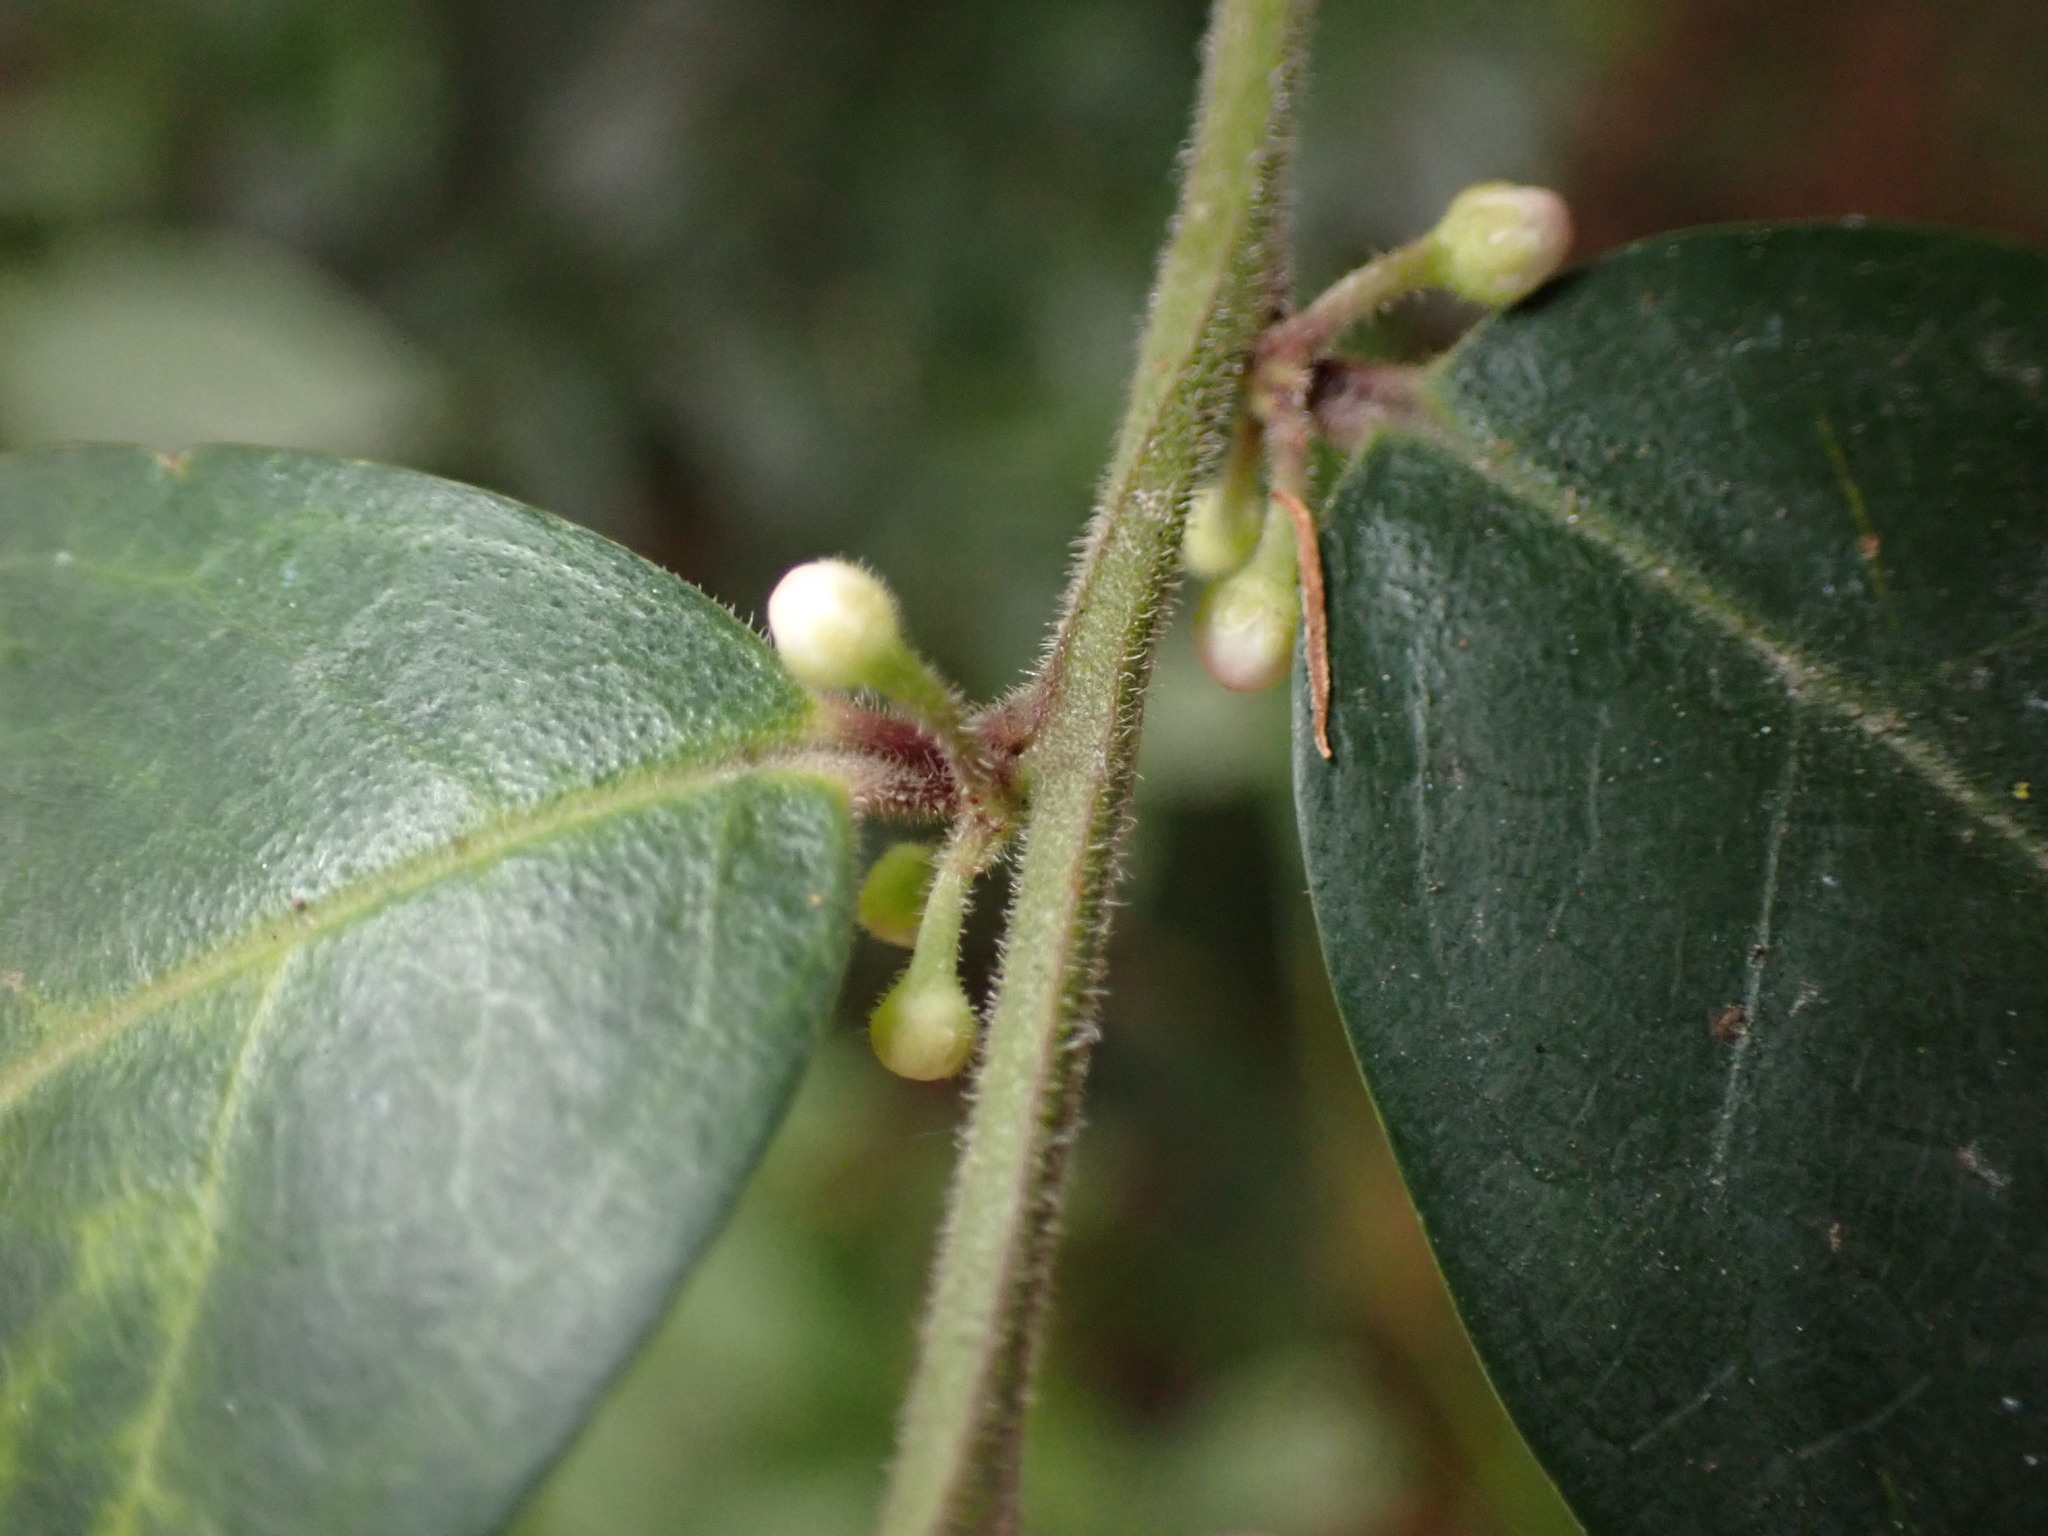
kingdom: Plantae
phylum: Tracheophyta
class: Magnoliopsida
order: Aquifoliales
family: Aquifoliaceae
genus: Ilex
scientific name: Ilex pubescens
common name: Pubescent holly
